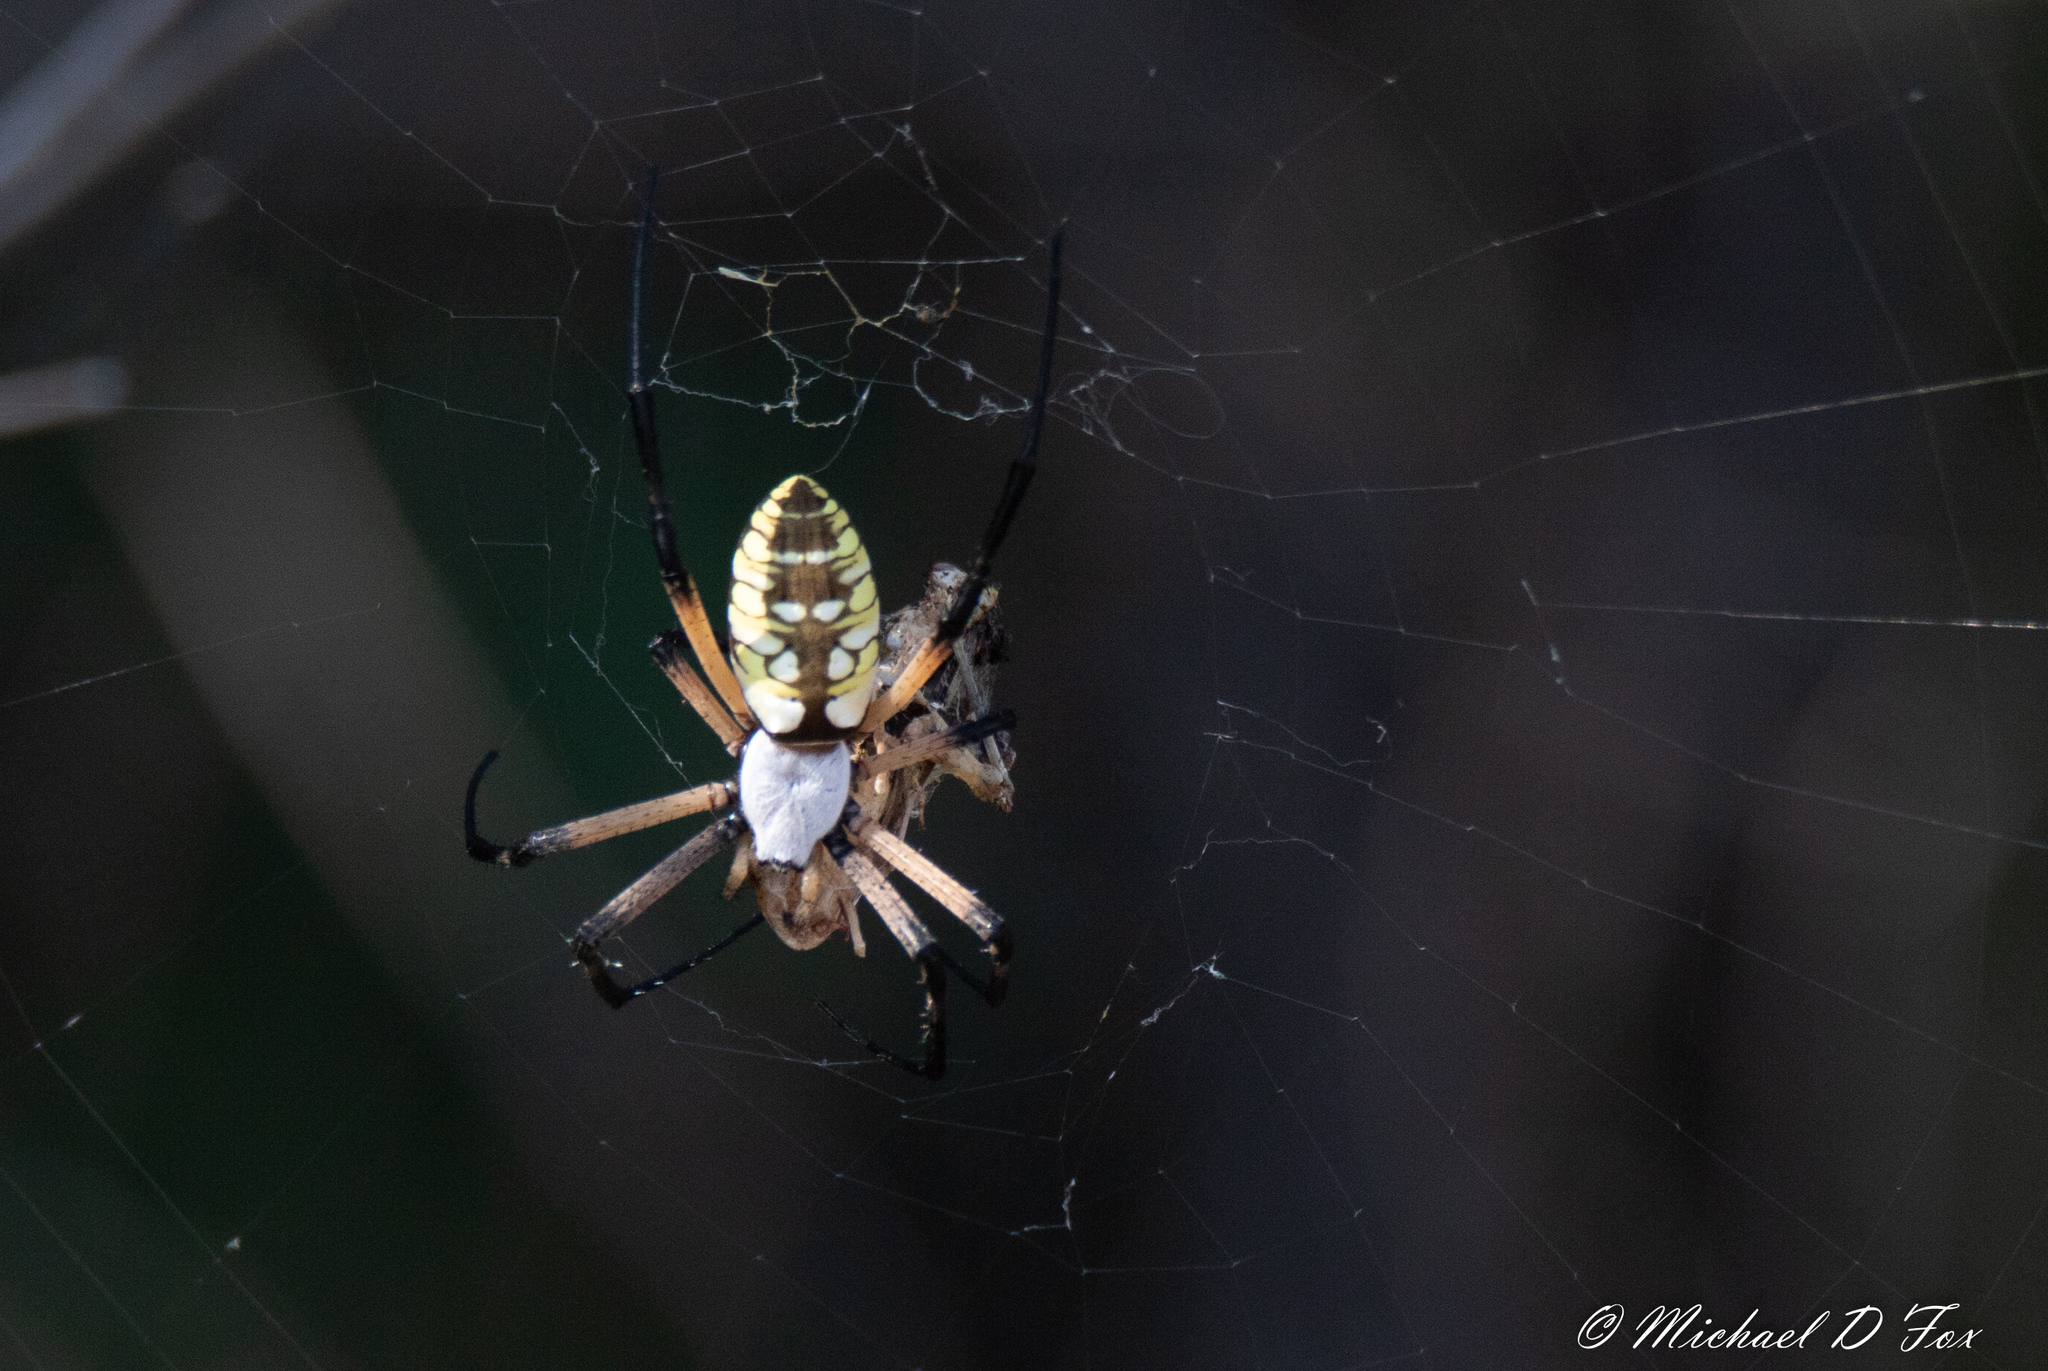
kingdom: Animalia
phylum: Arthropoda
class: Arachnida
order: Araneae
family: Araneidae
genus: Argiope
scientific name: Argiope aurantia
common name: Orb weavers
